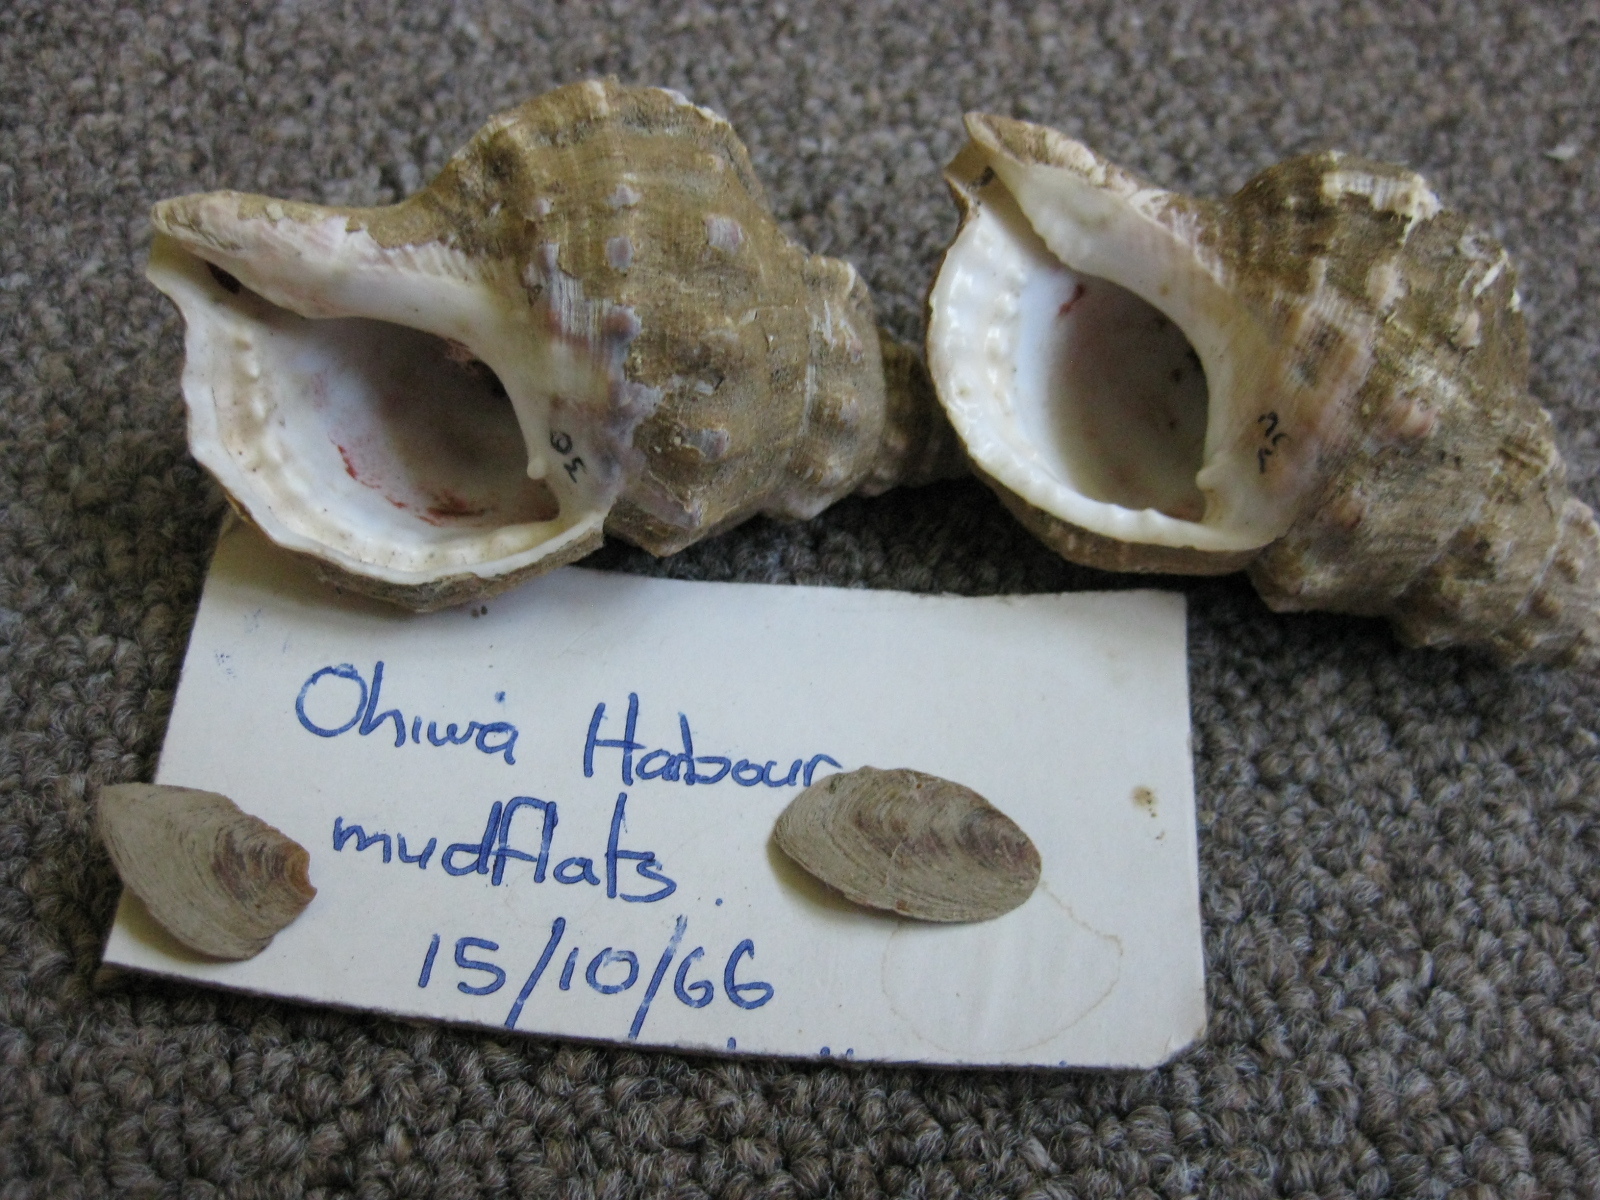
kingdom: Animalia
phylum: Mollusca
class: Gastropoda
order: Littorinimorpha
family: Ranellidae
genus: Ranella
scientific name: Ranella australasia
